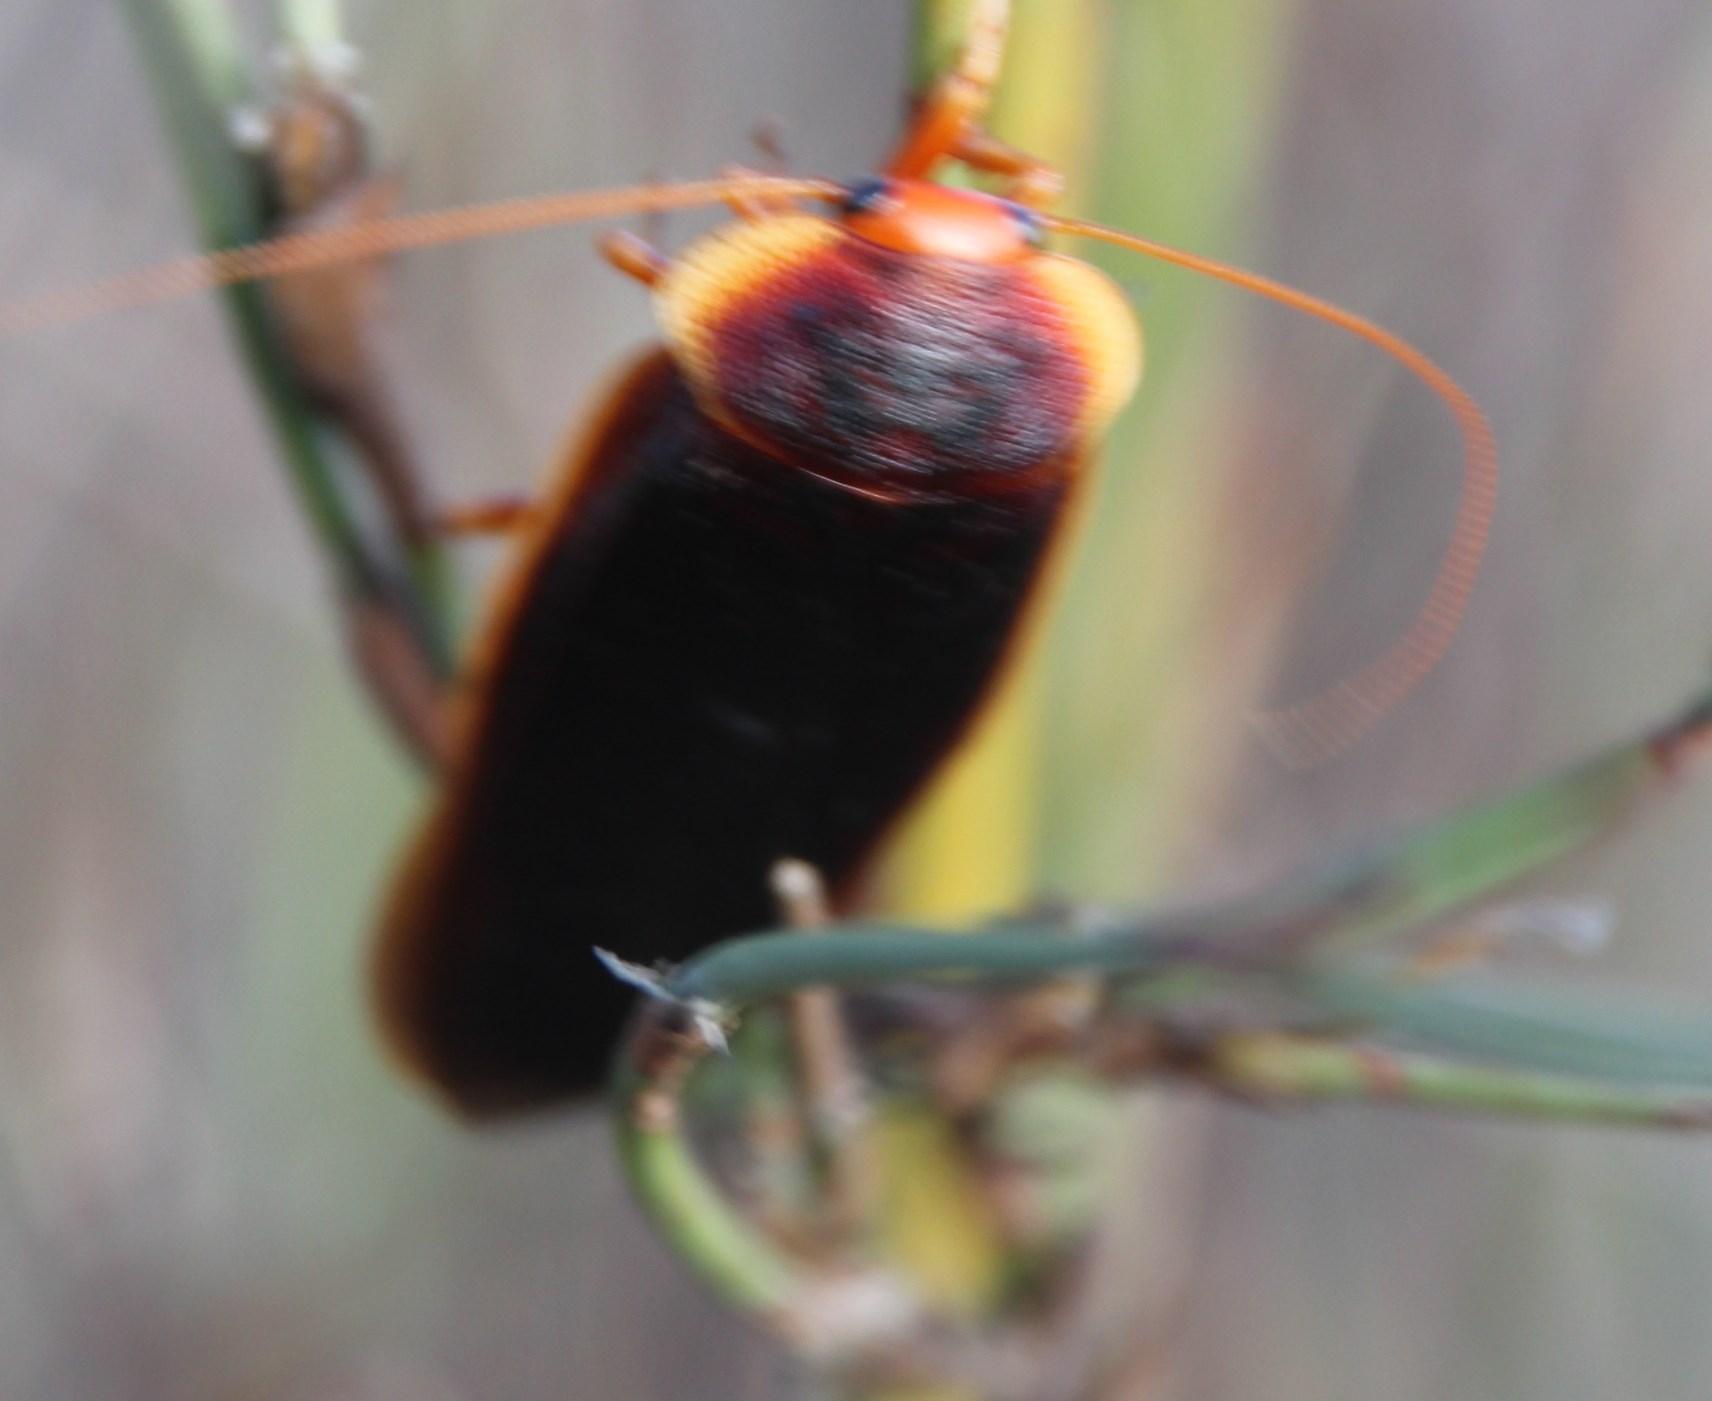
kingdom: Animalia
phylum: Arthropoda
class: Insecta
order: Blattodea
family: Blaberidae
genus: Aptera
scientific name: Aptera fusca
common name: Cape mountain cockroach
